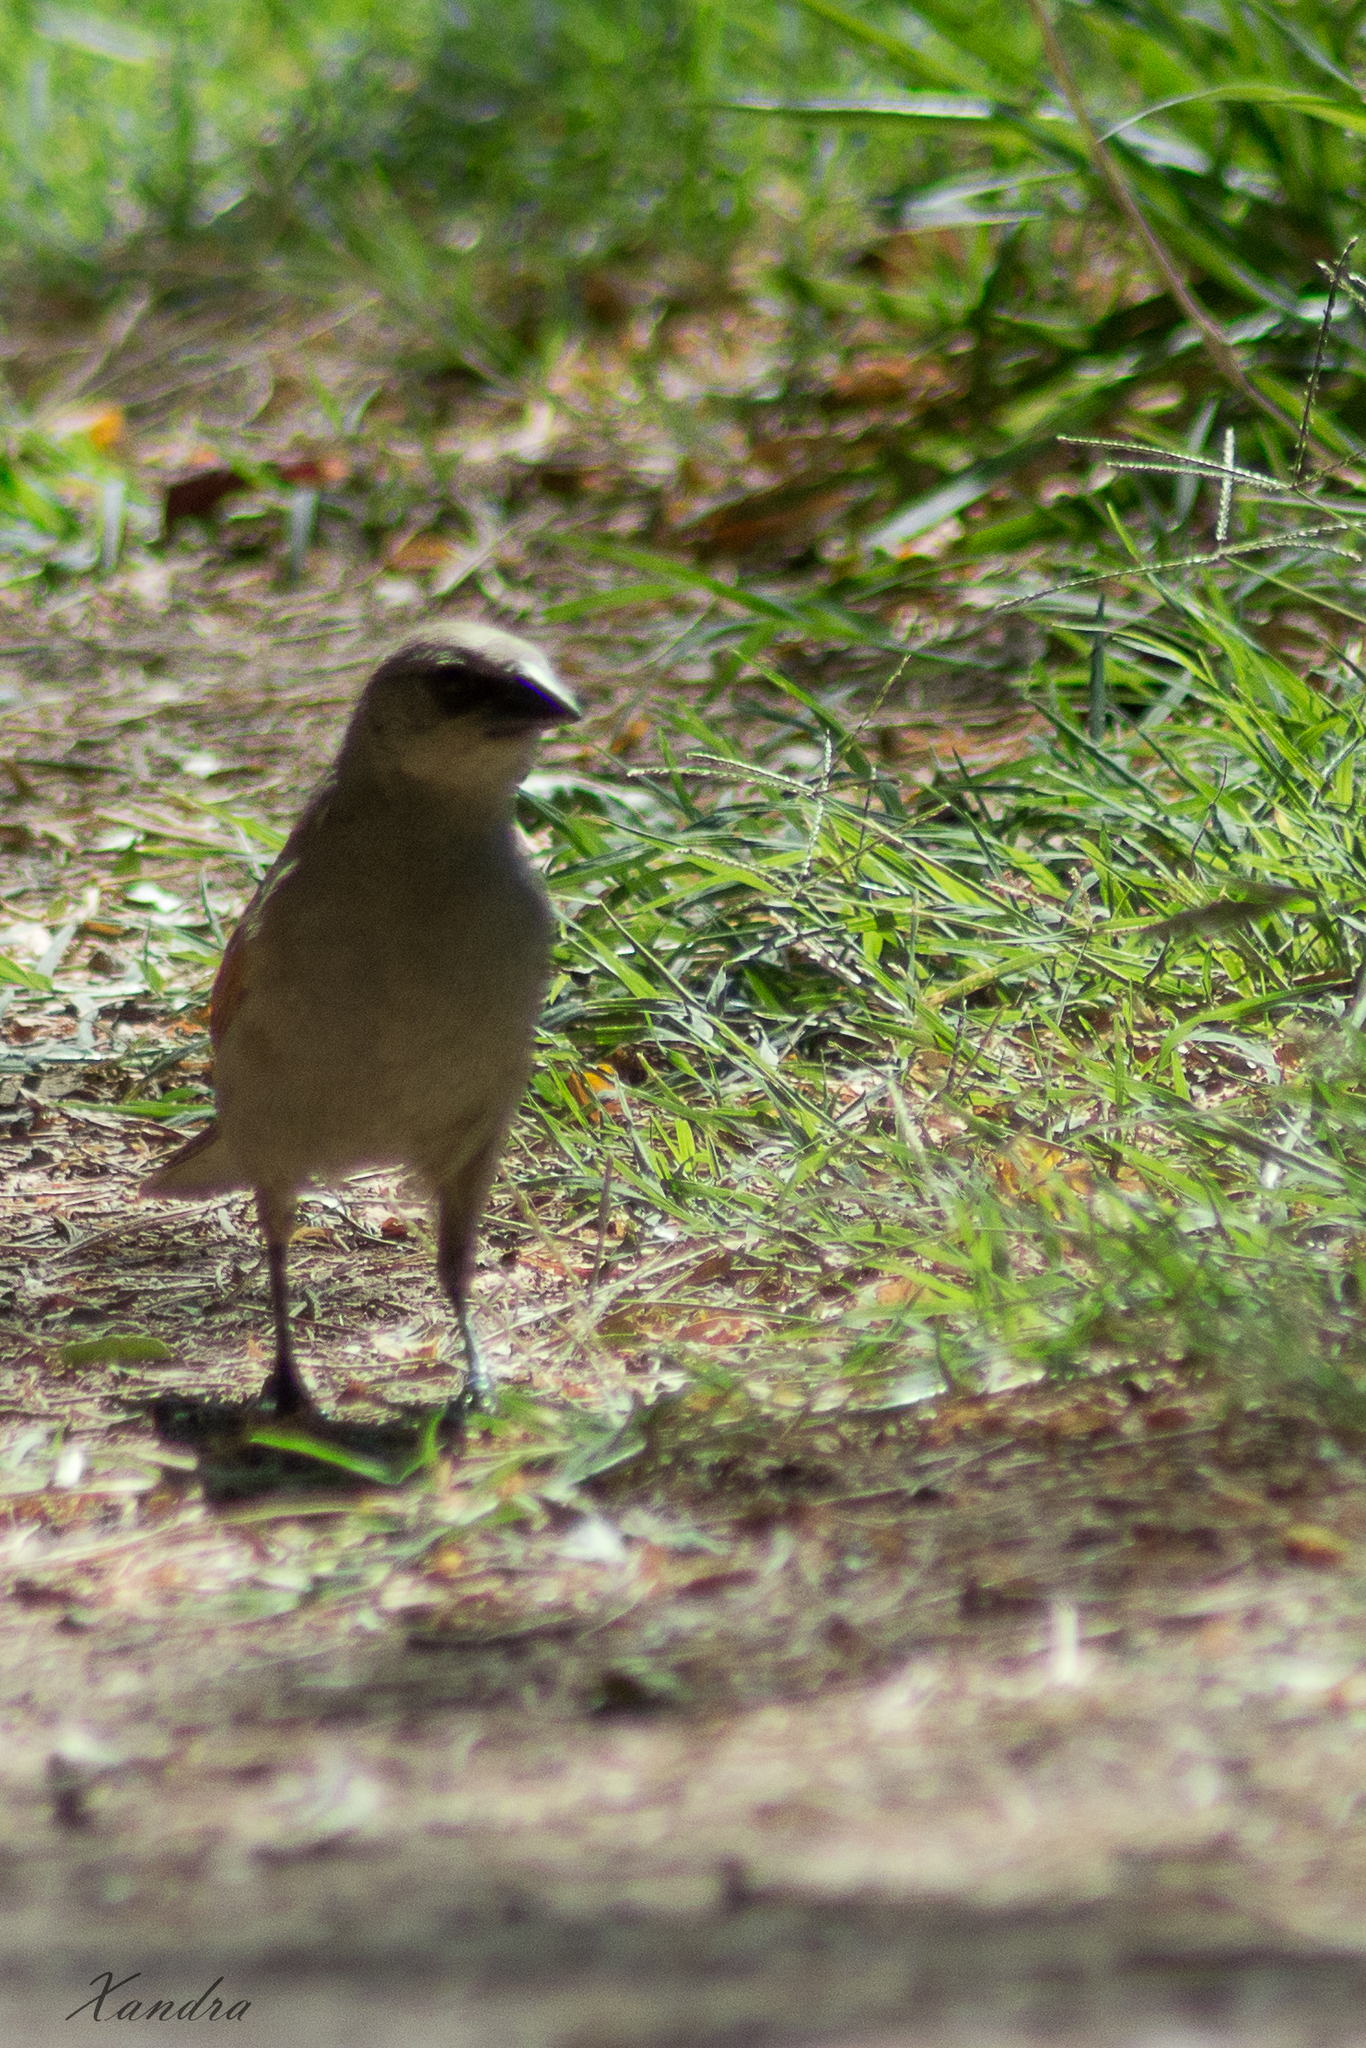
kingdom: Animalia
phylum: Chordata
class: Aves
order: Passeriformes
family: Icteridae
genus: Agelaioides
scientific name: Agelaioides badius
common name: Baywing
